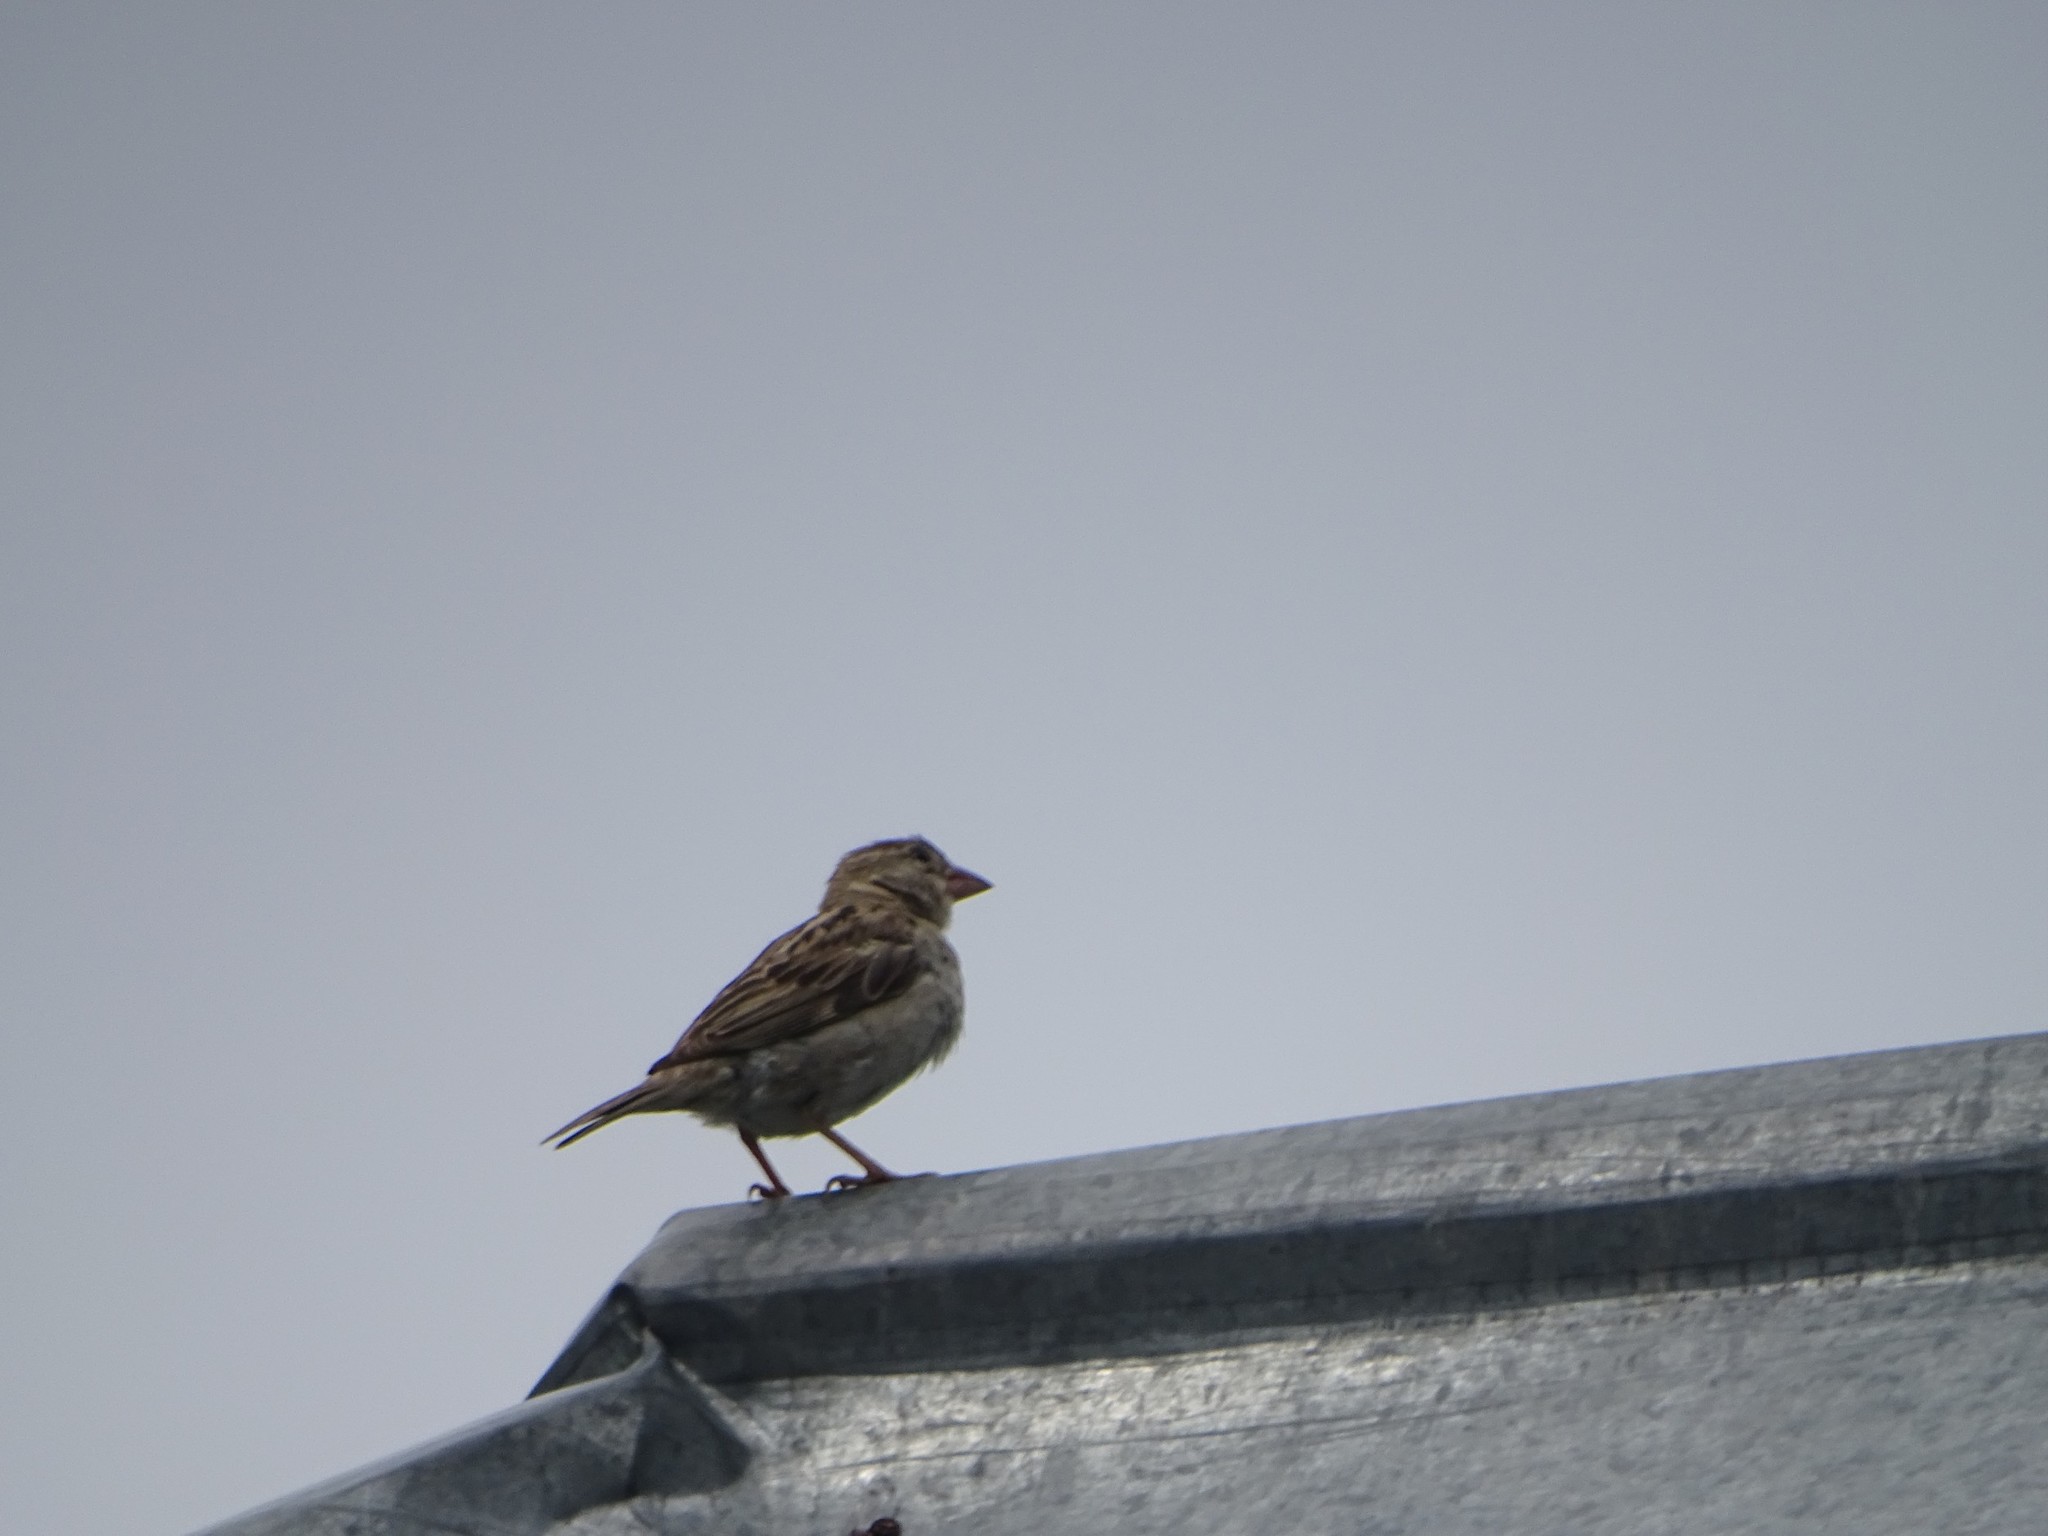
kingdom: Animalia
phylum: Chordata
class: Aves
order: Passeriformes
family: Passeridae
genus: Passer
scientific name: Passer domesticus
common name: House sparrow
